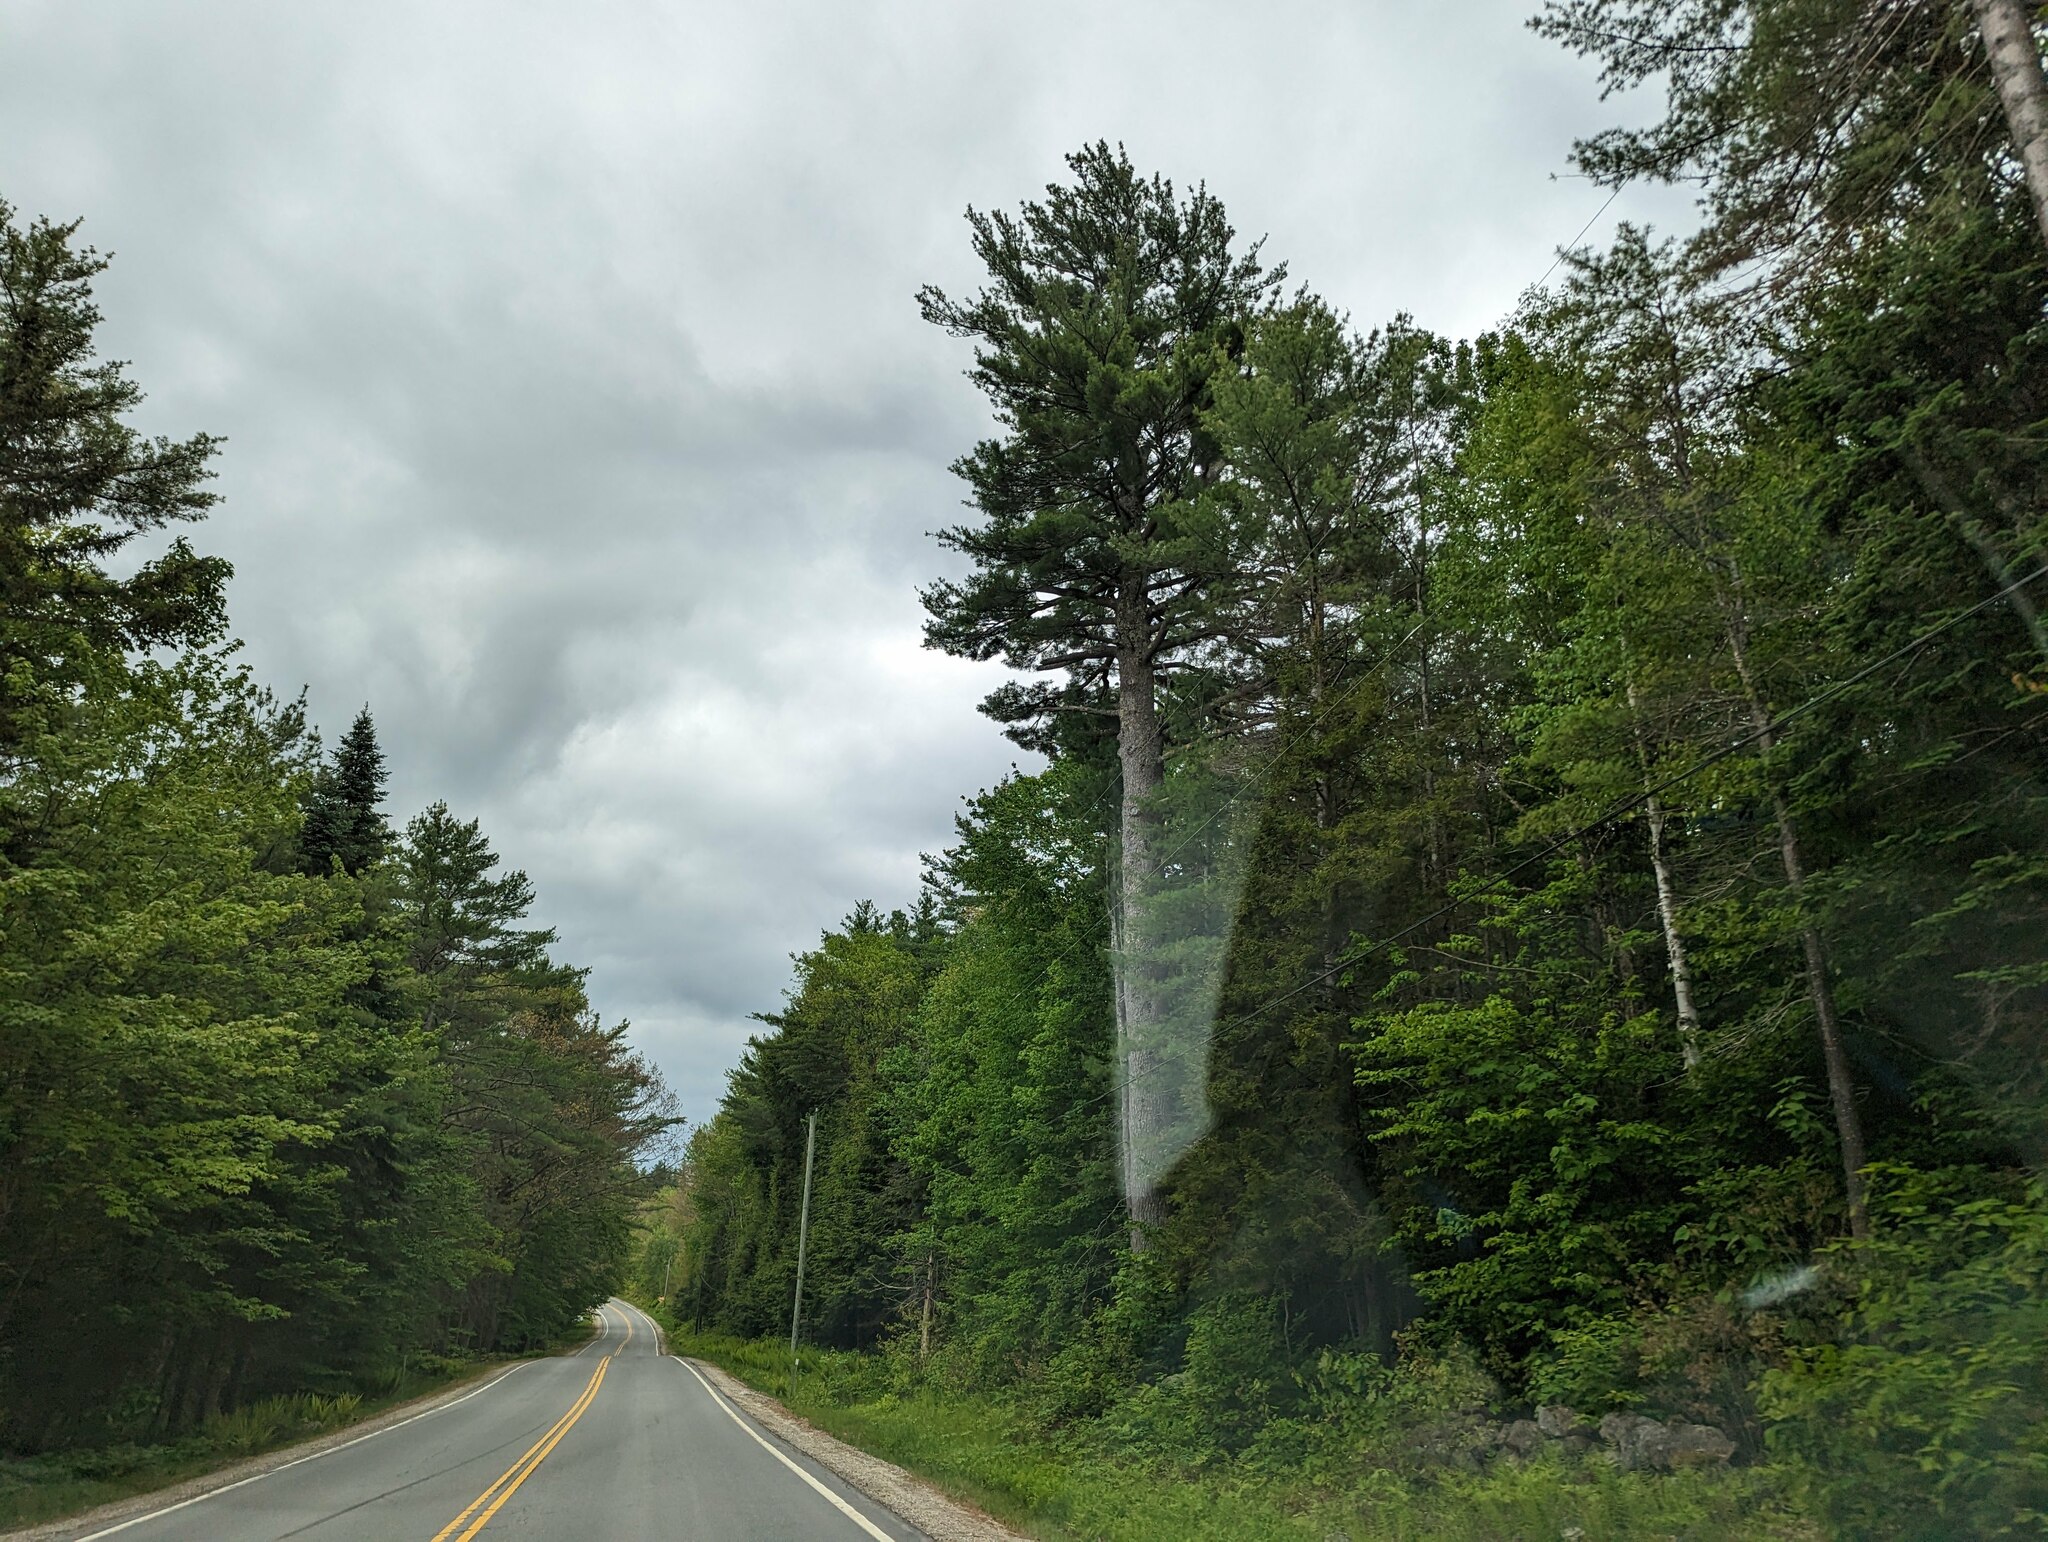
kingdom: Plantae
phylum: Tracheophyta
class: Pinopsida
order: Pinales
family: Pinaceae
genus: Pinus
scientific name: Pinus strobus
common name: Weymouth pine
